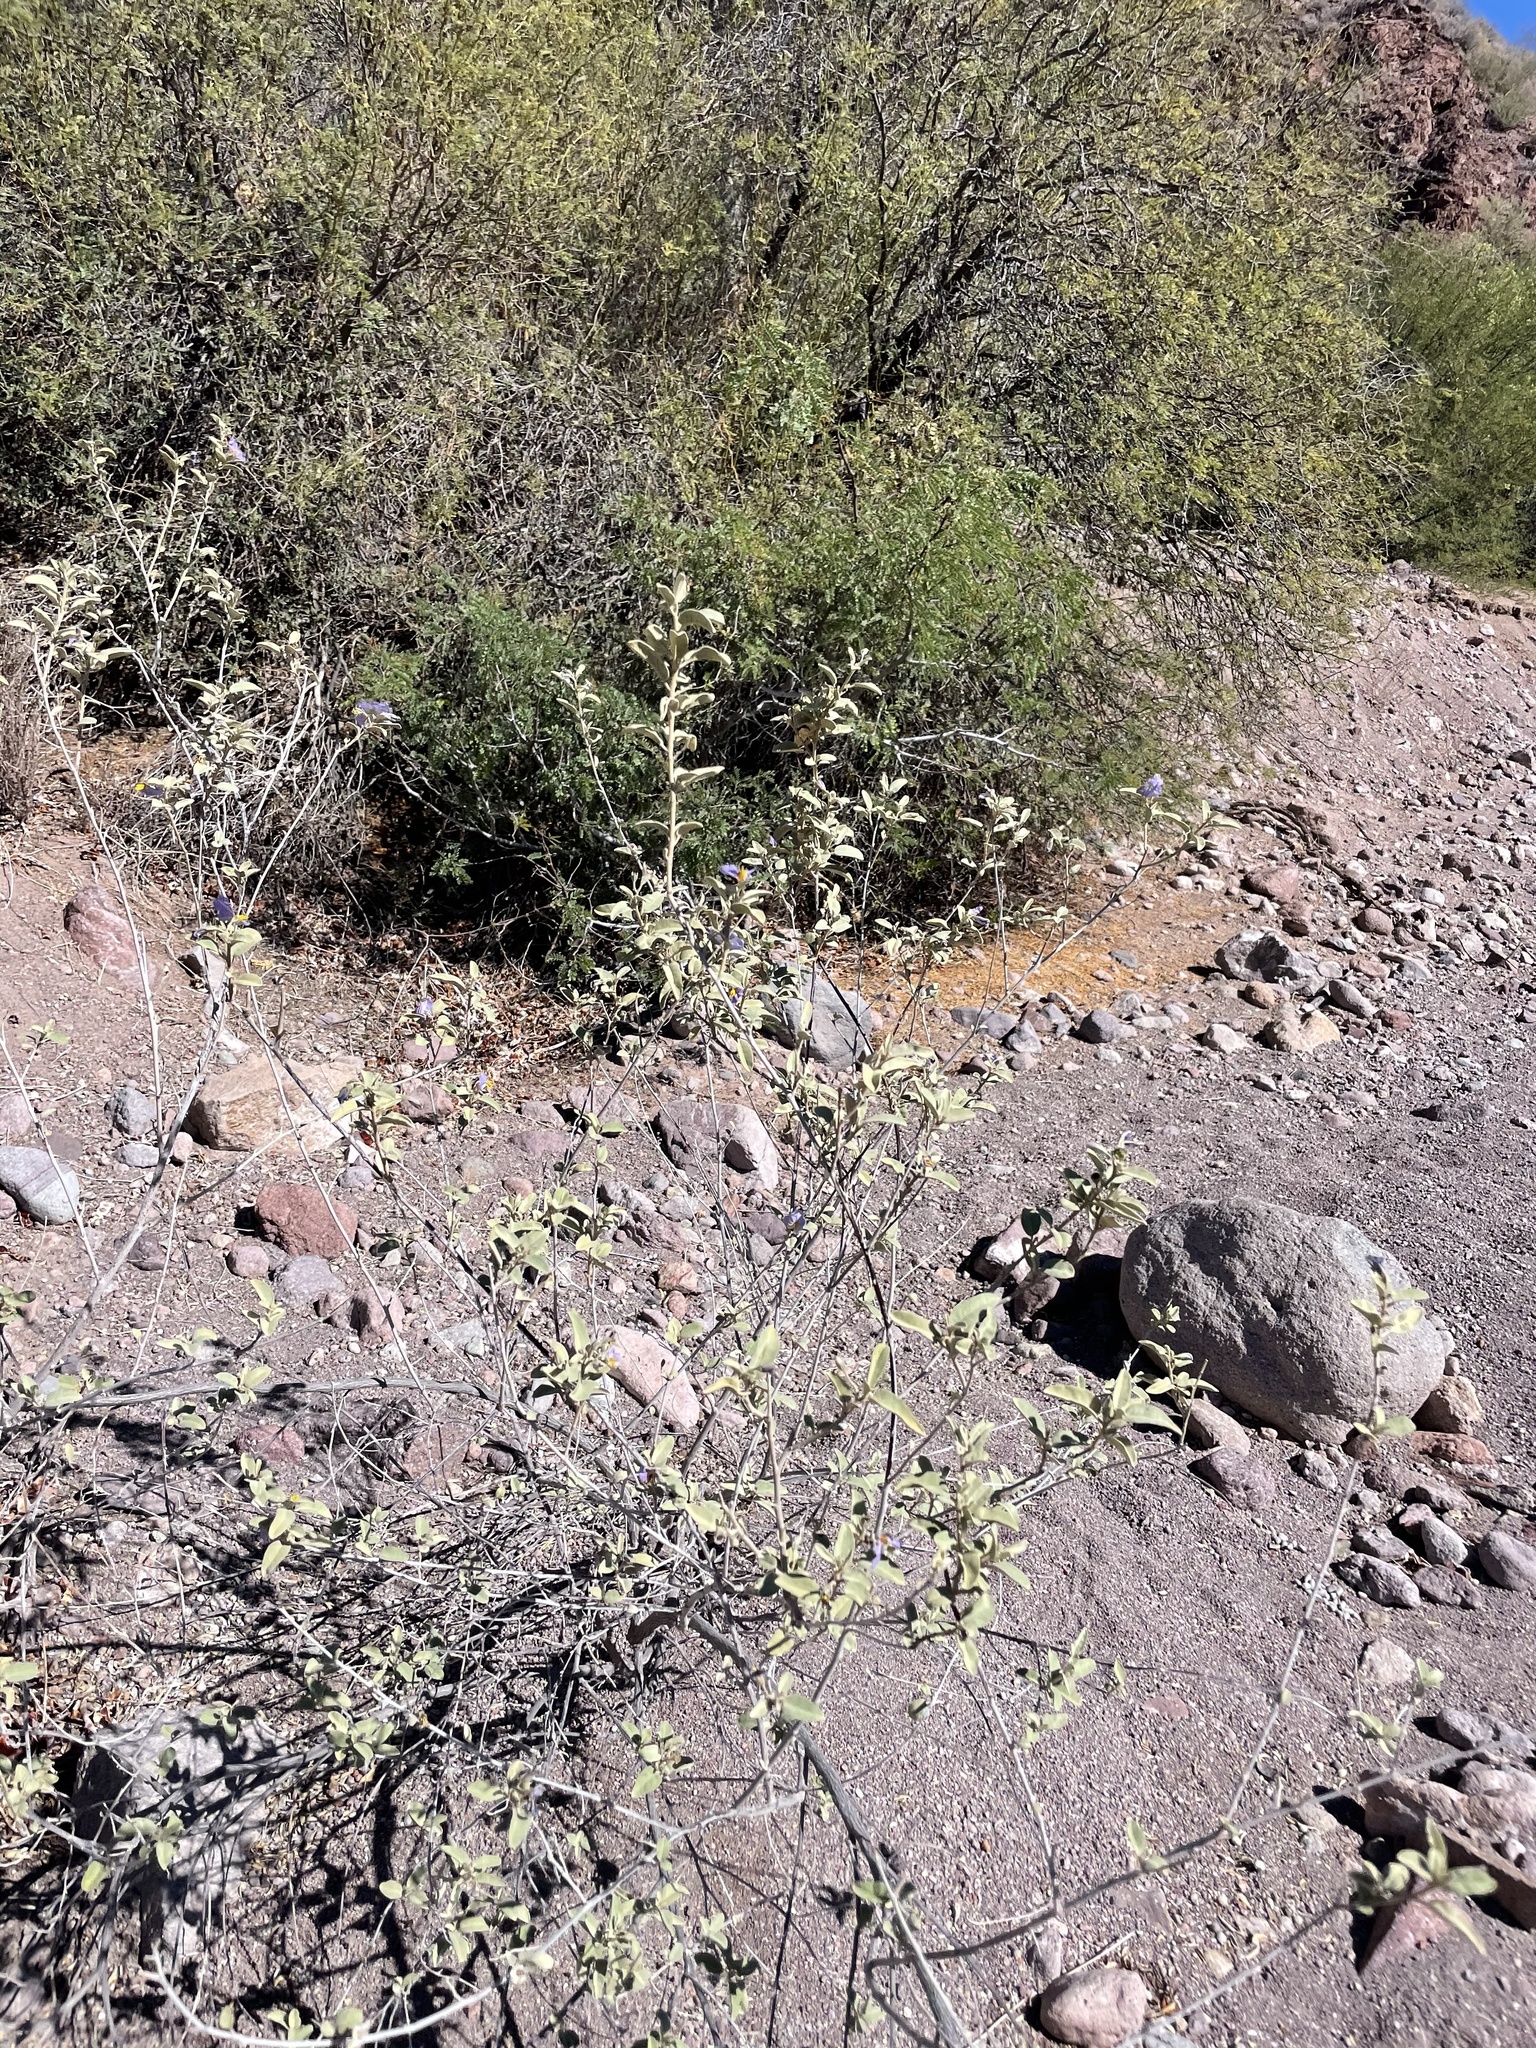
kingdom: Plantae
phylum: Tracheophyta
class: Magnoliopsida
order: Solanales
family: Solanaceae
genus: Solanum
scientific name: Solanum hindsianum
